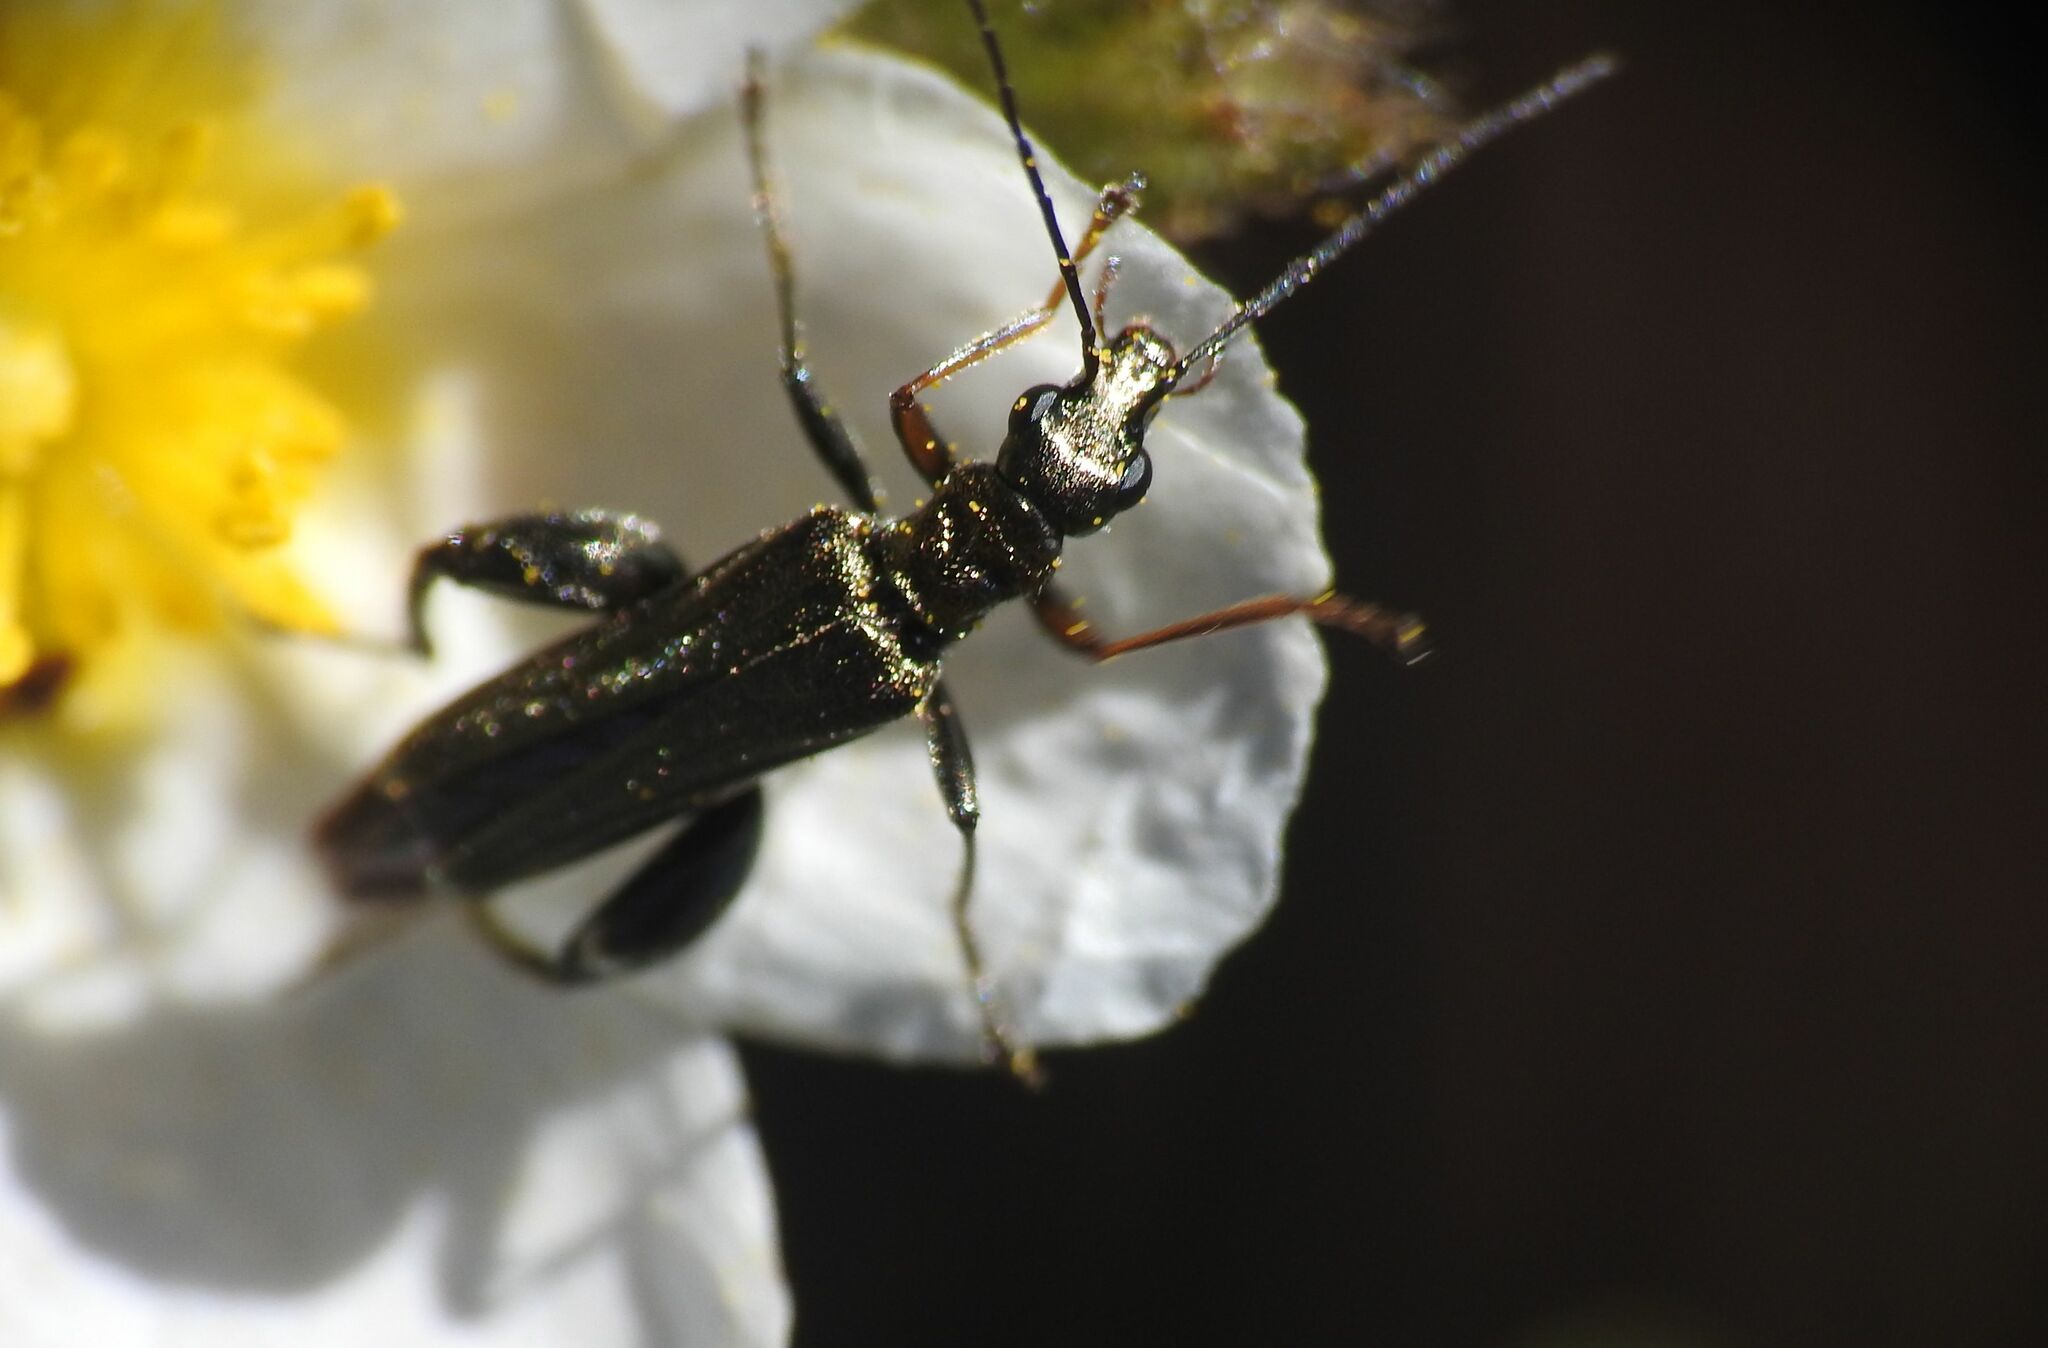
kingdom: Animalia
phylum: Arthropoda
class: Insecta
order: Coleoptera
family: Oedemeridae
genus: Oedemera
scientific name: Oedemera flavipes
